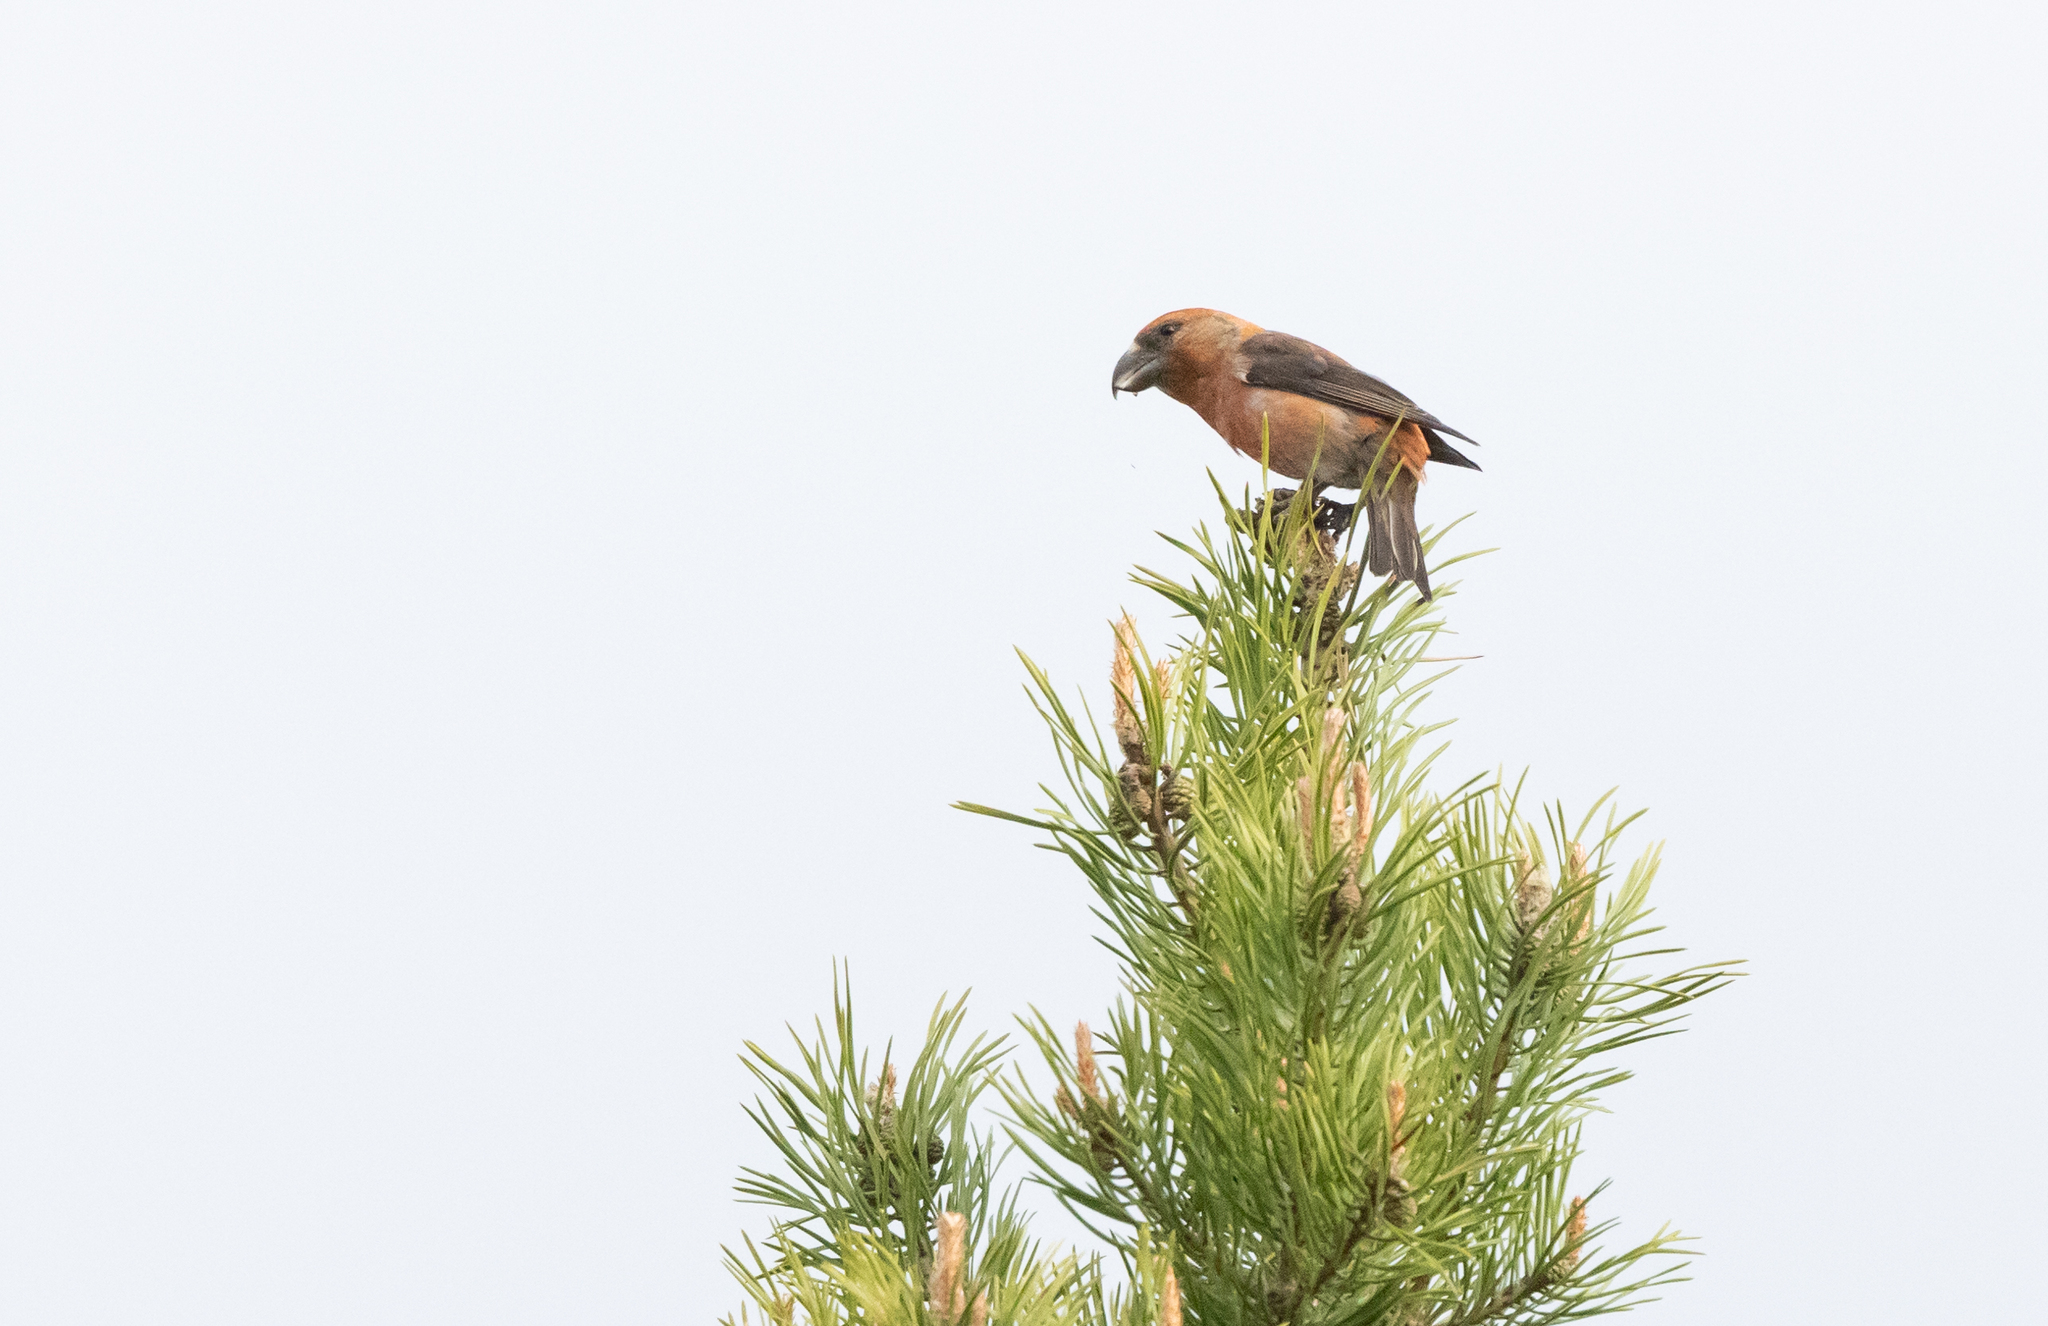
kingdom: Animalia
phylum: Chordata
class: Aves
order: Passeriformes
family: Fringillidae
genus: Loxia
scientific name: Loxia pytyopsittacus
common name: Parrot crossbill
